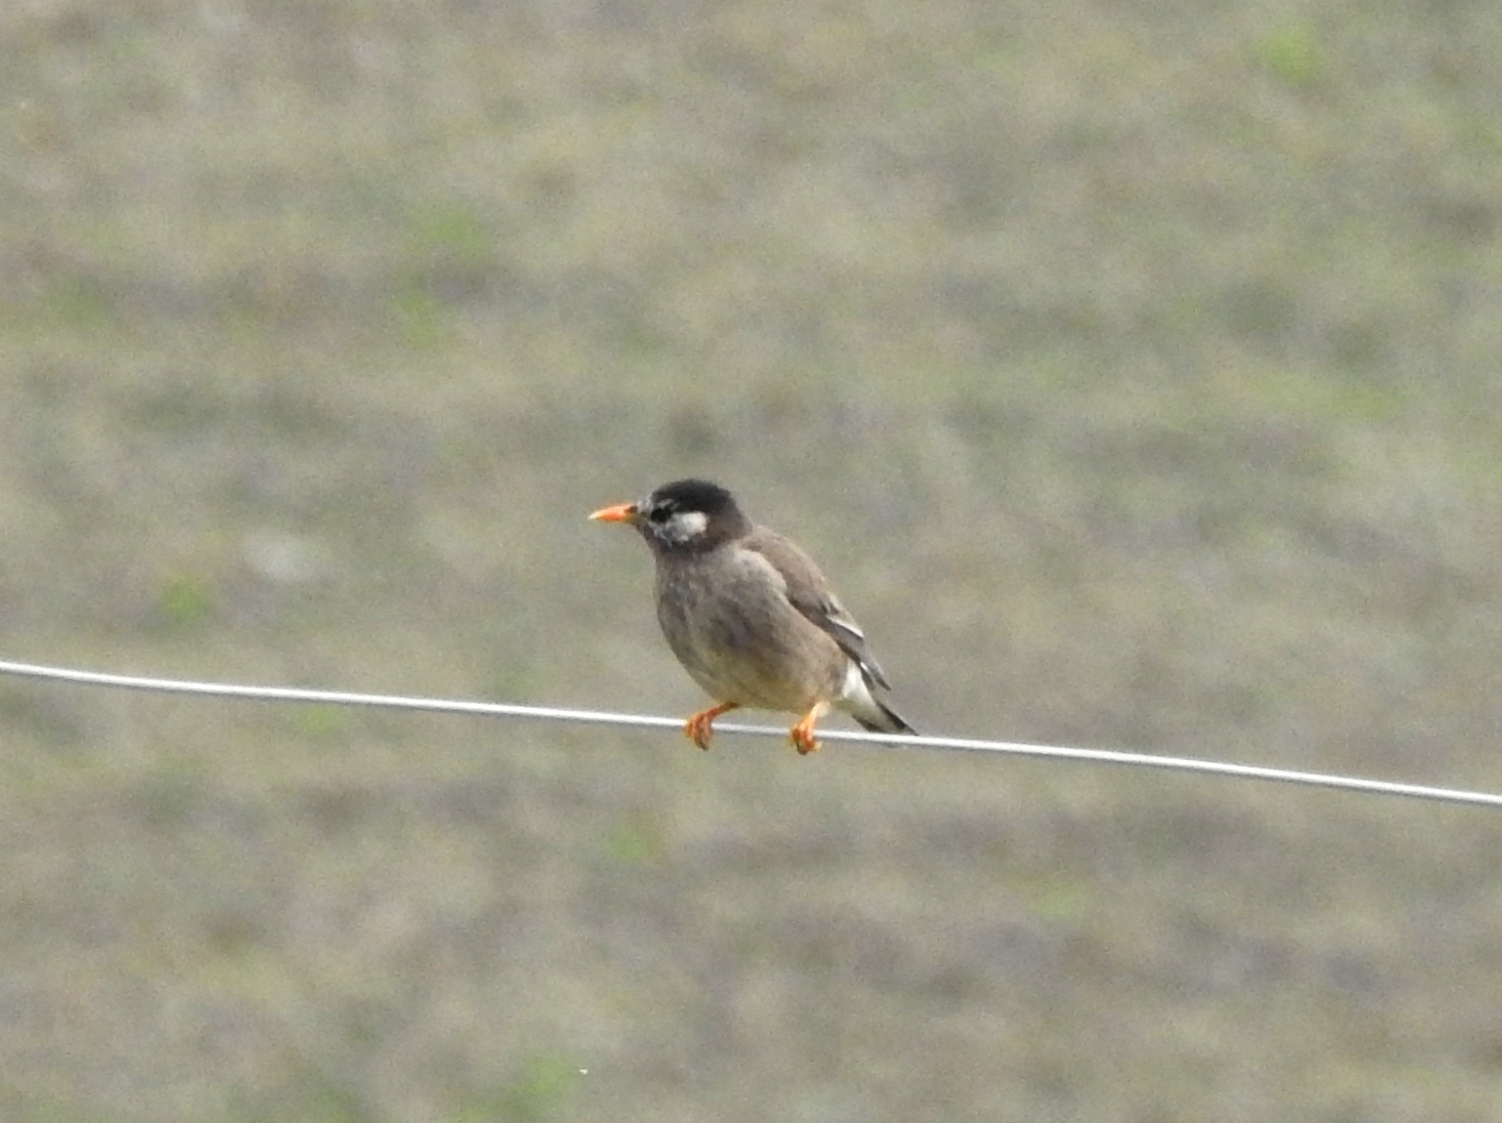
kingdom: Animalia
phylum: Chordata
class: Aves
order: Passeriformes
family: Sturnidae
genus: Spodiopsar
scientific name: Spodiopsar cineraceus
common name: White-cheeked starling
